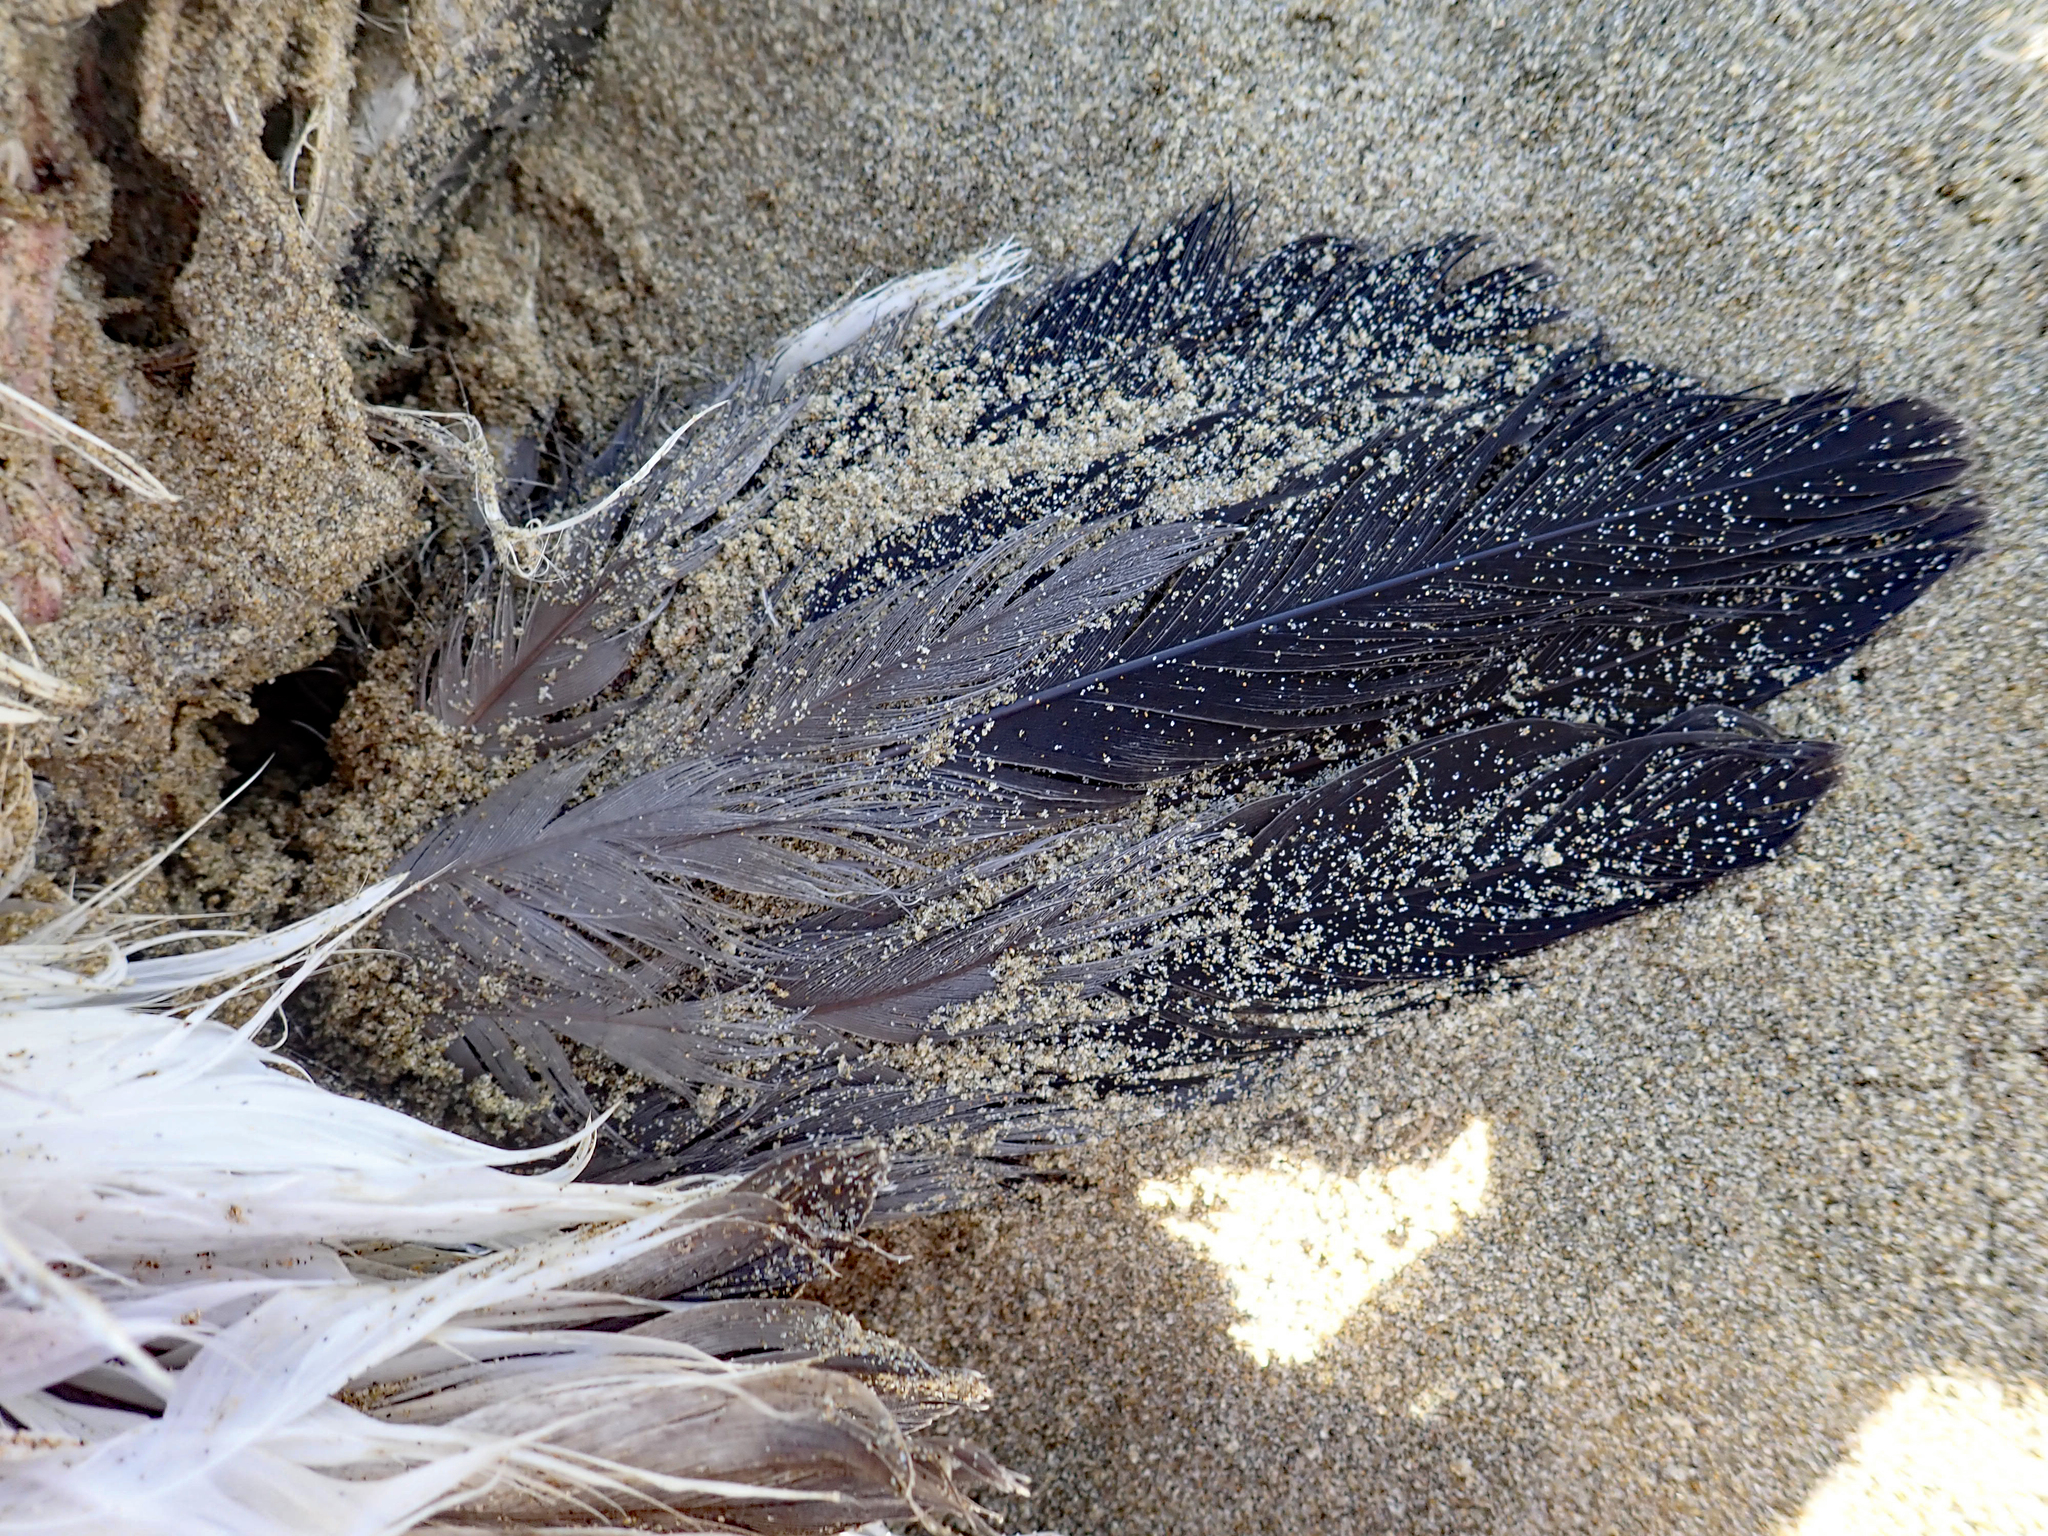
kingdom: Animalia
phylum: Chordata
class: Aves
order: Procellariiformes
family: Procellariidae
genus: Puffinus
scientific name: Puffinus bulleri
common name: Buller's shearwater
